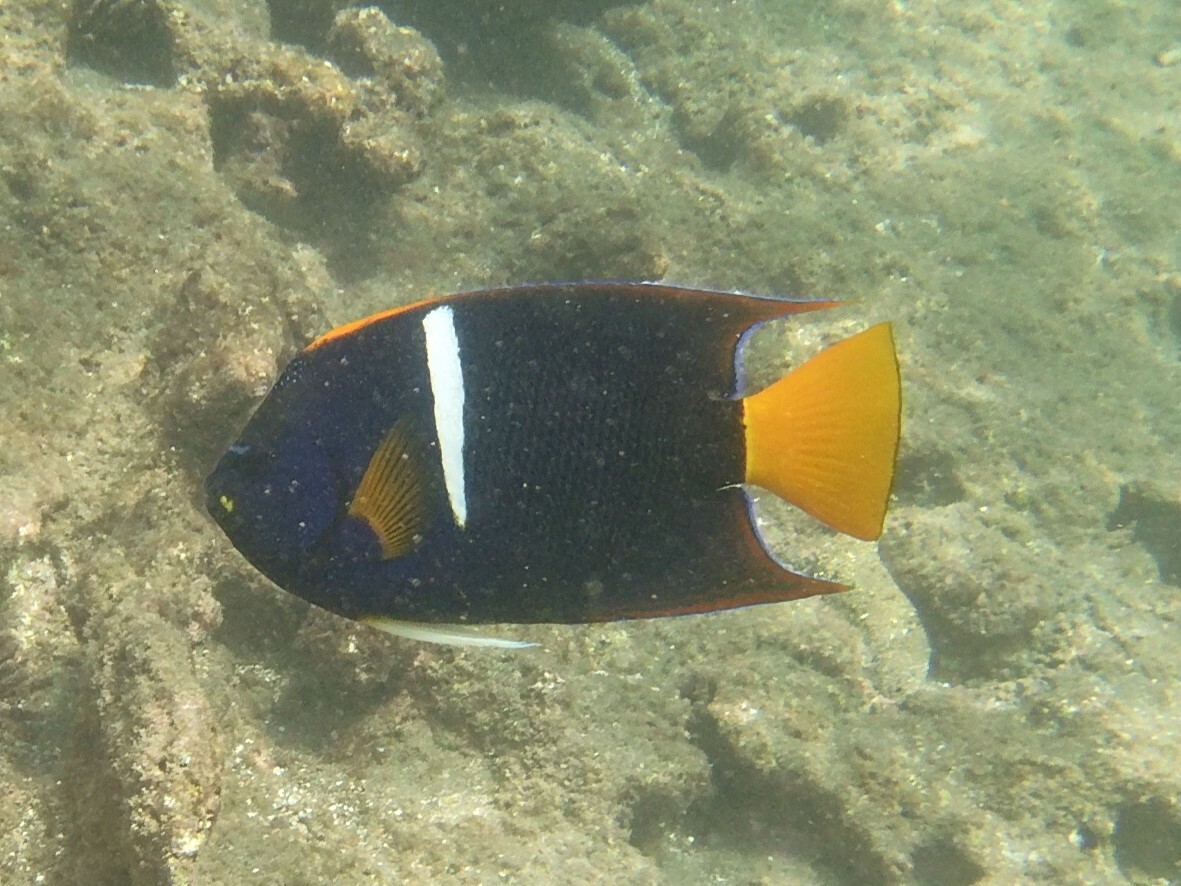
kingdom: Animalia
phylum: Chordata
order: Perciformes
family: Pomacanthidae
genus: Holacanthus
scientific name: Holacanthus passer
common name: King angelfish
